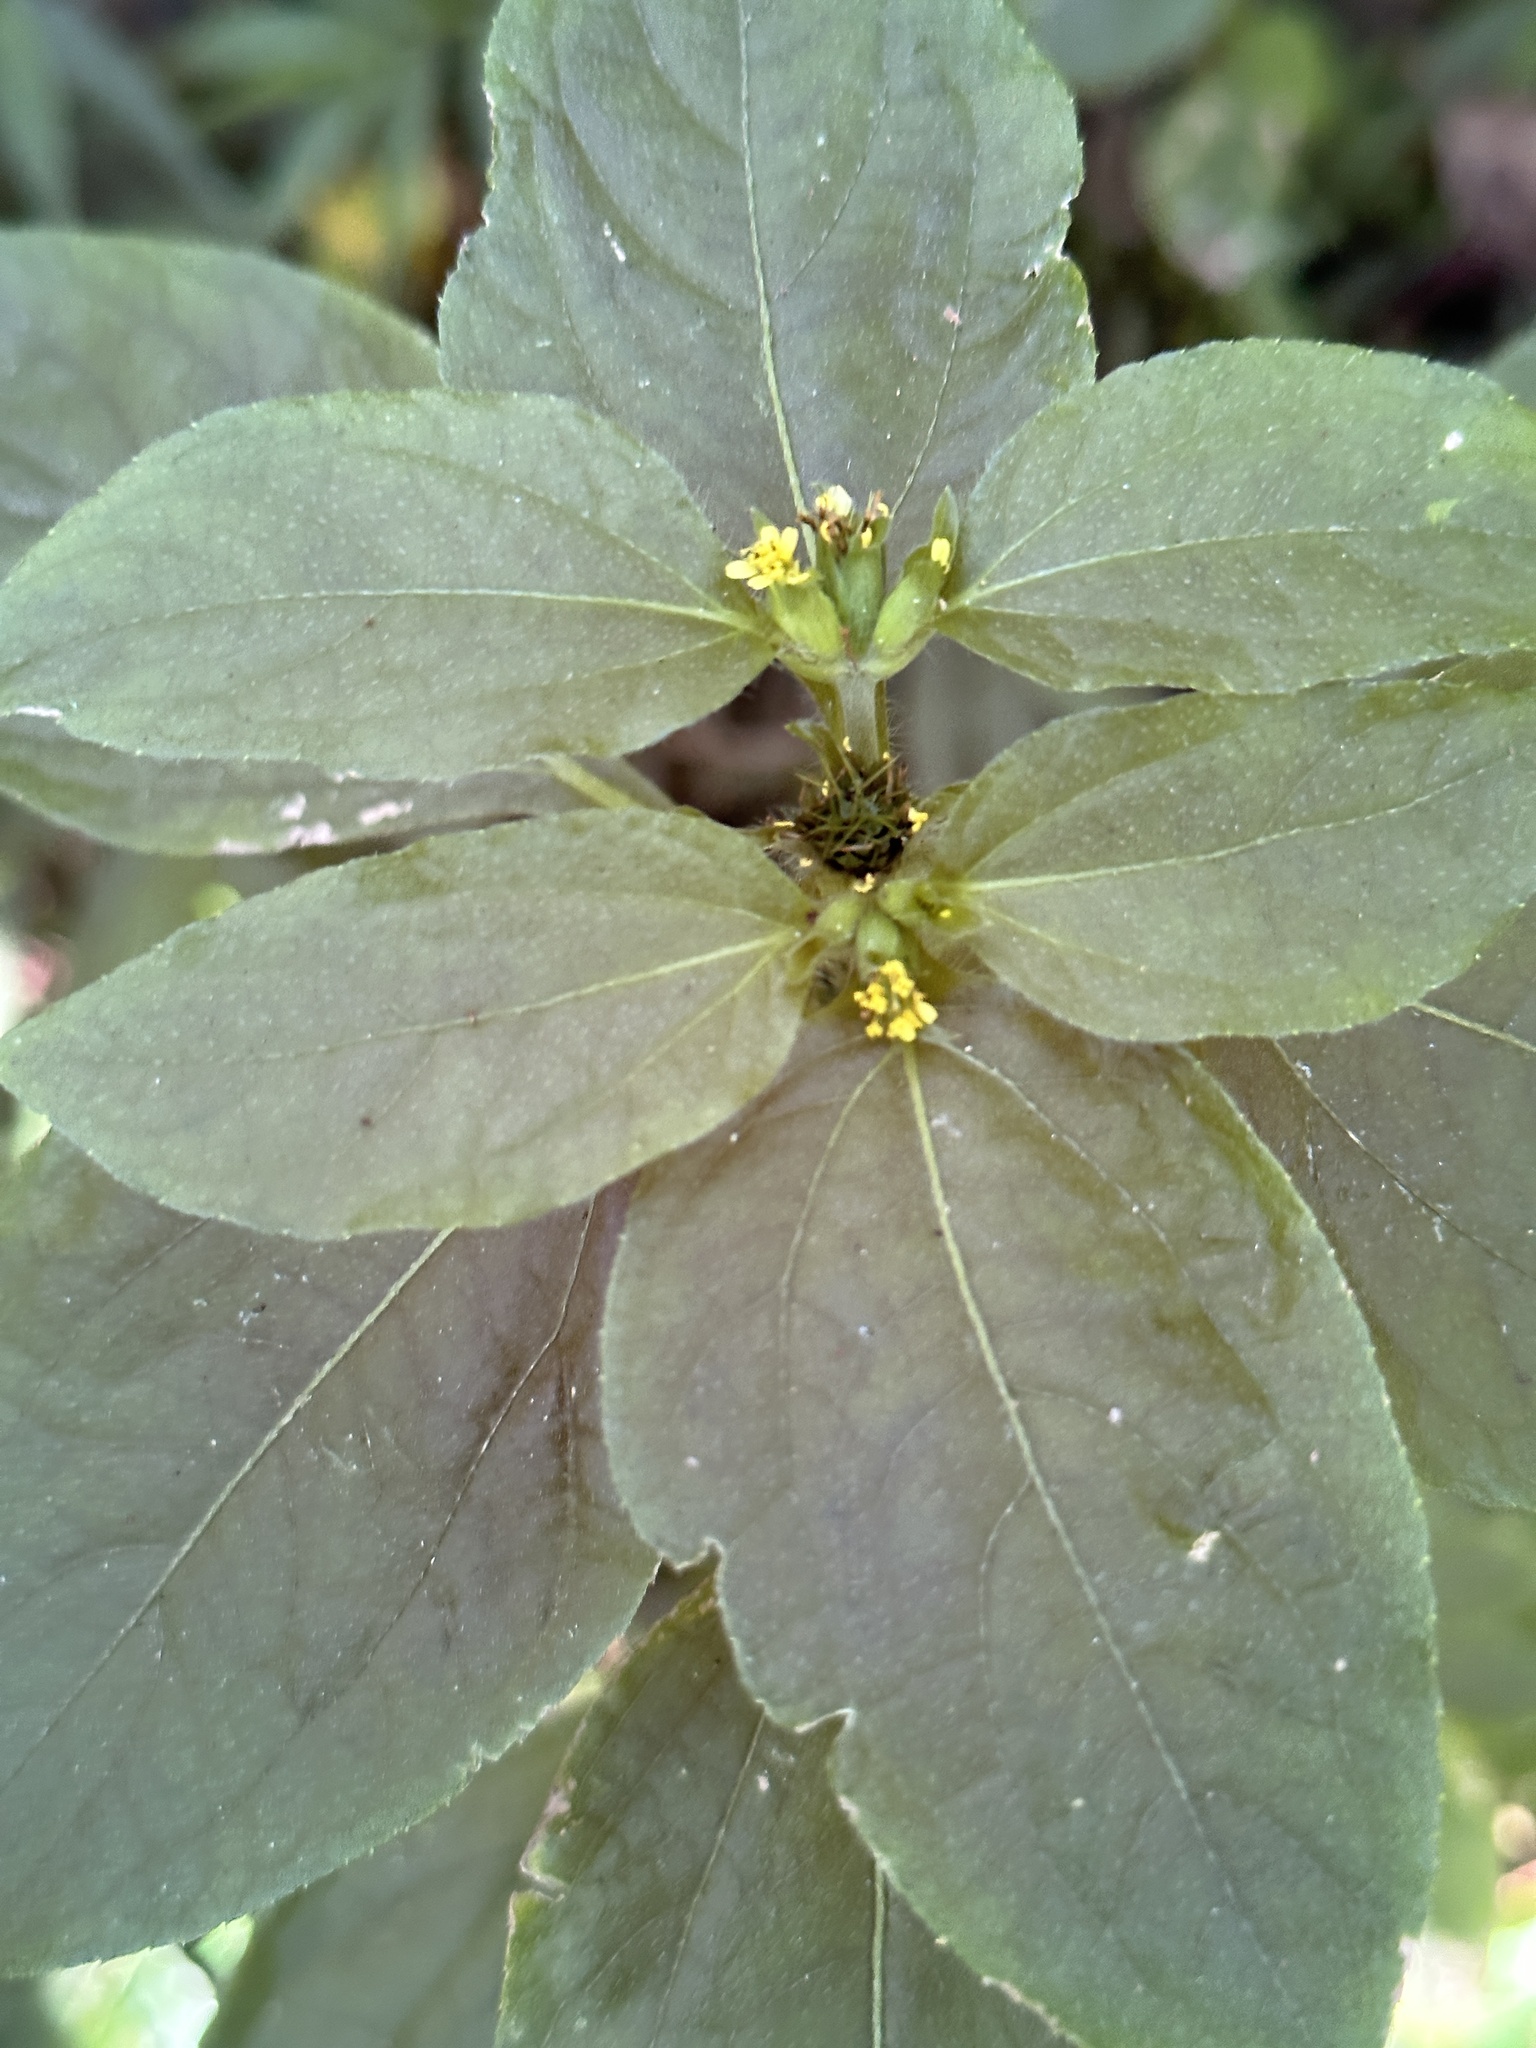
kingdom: Plantae
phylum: Tracheophyta
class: Magnoliopsida
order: Asterales
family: Asteraceae
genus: Synedrella
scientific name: Synedrella nodiflora
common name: Nodeweed
